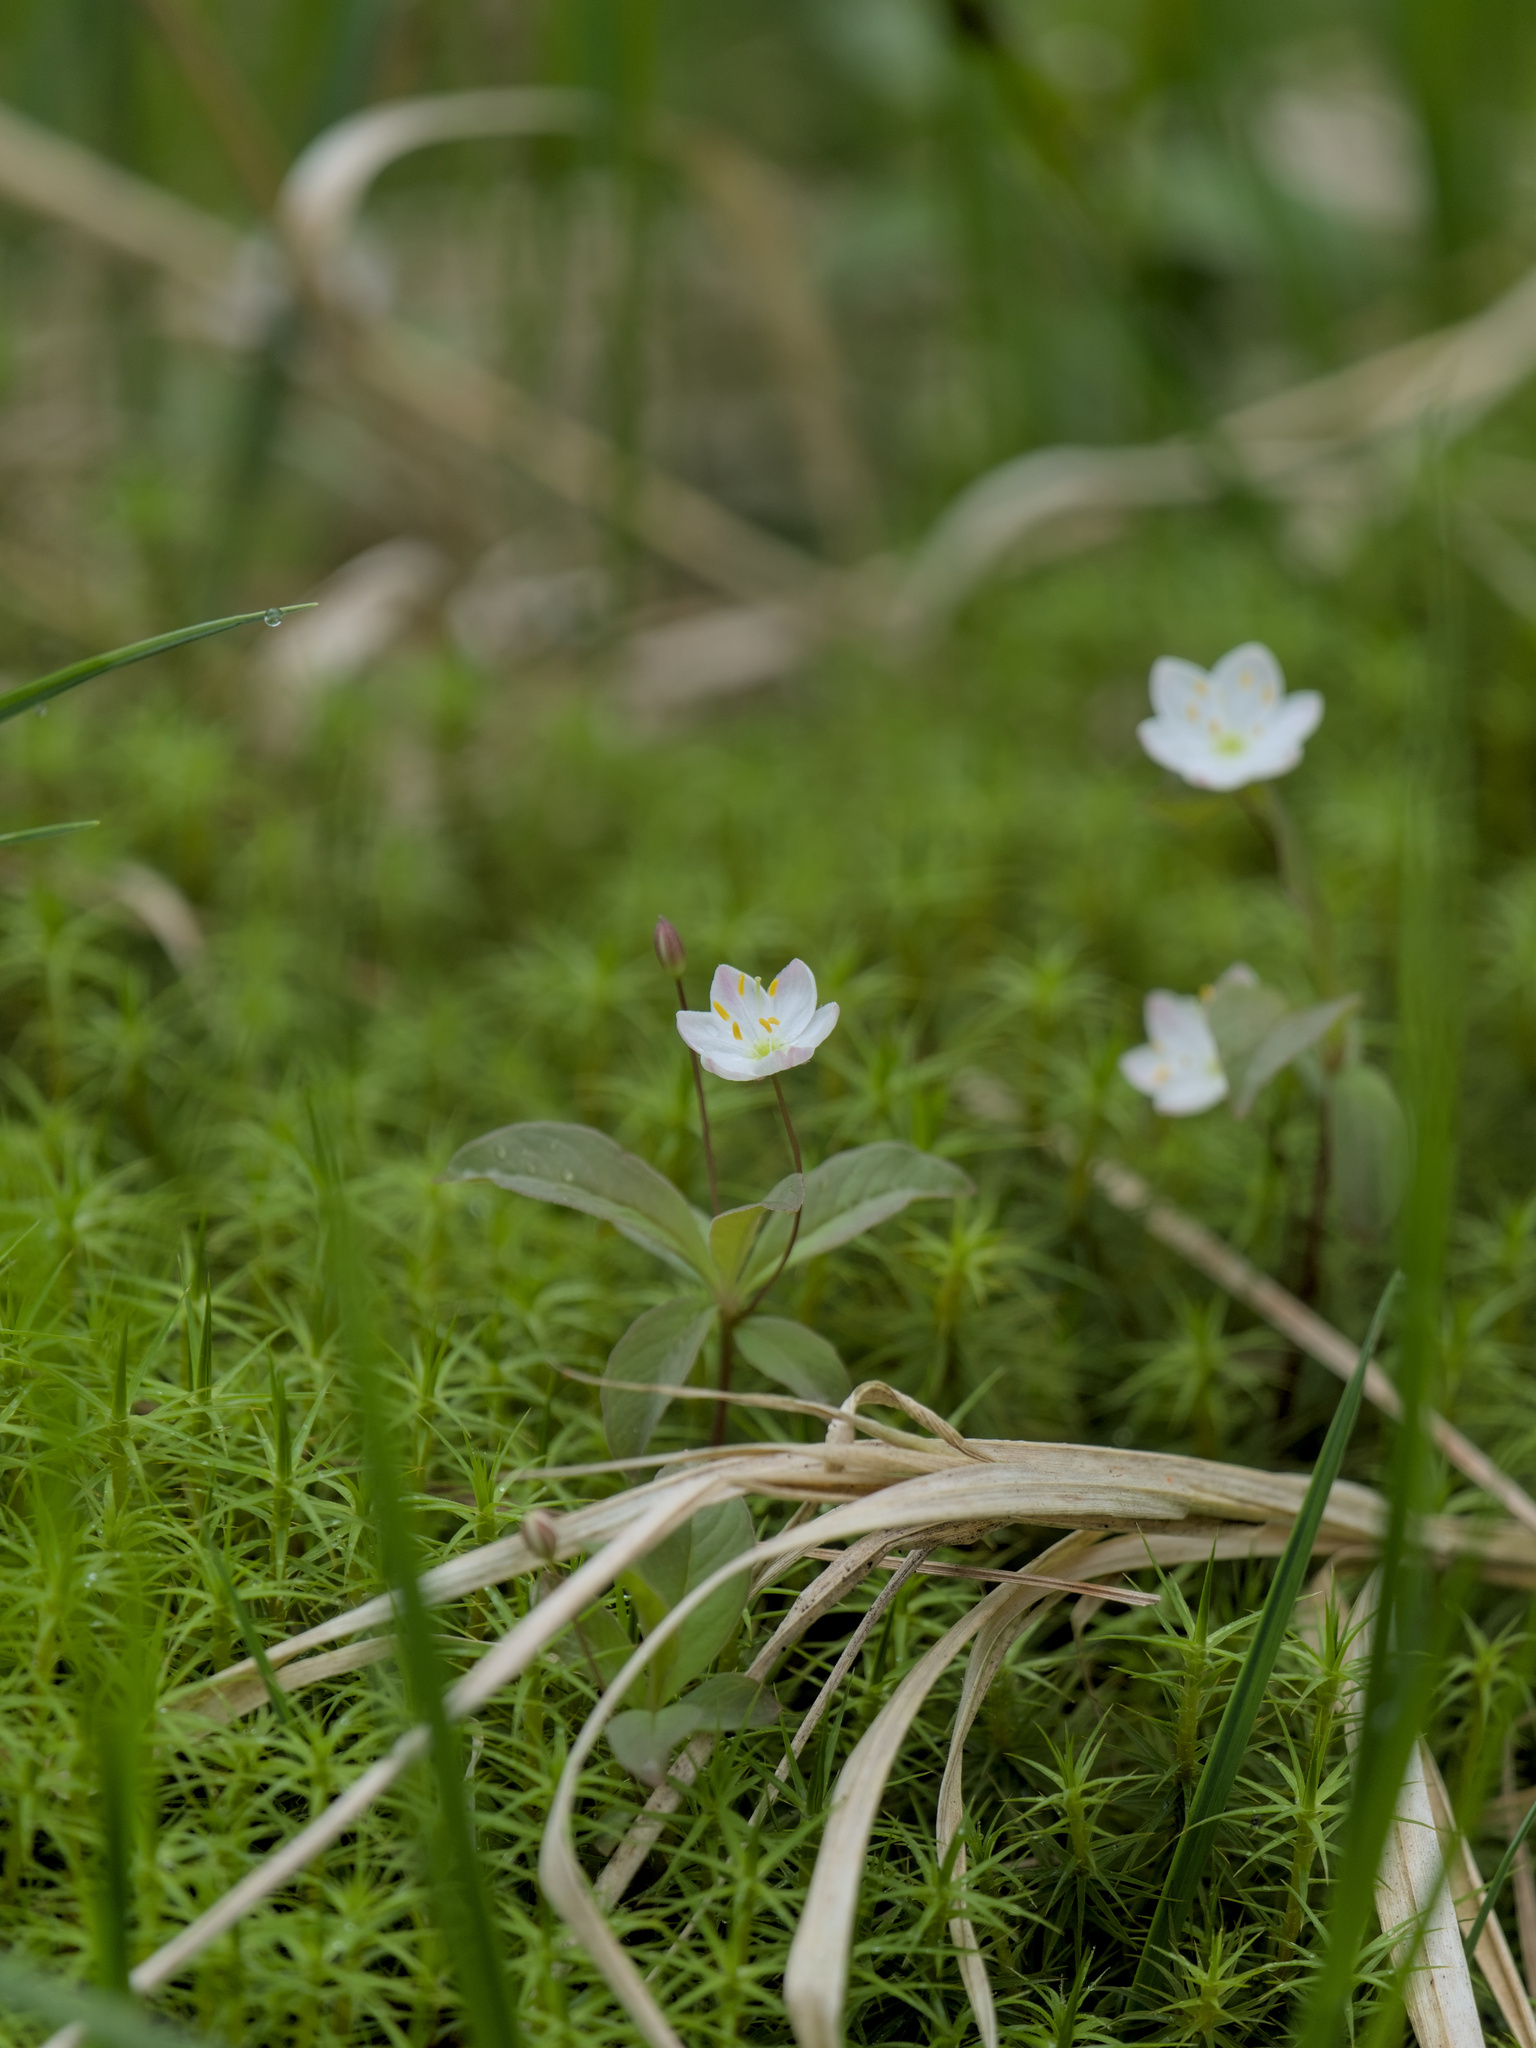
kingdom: Plantae
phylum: Tracheophyta
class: Magnoliopsida
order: Ericales
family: Primulaceae
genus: Lysimachia
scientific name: Lysimachia europaea
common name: Arctic starflower
